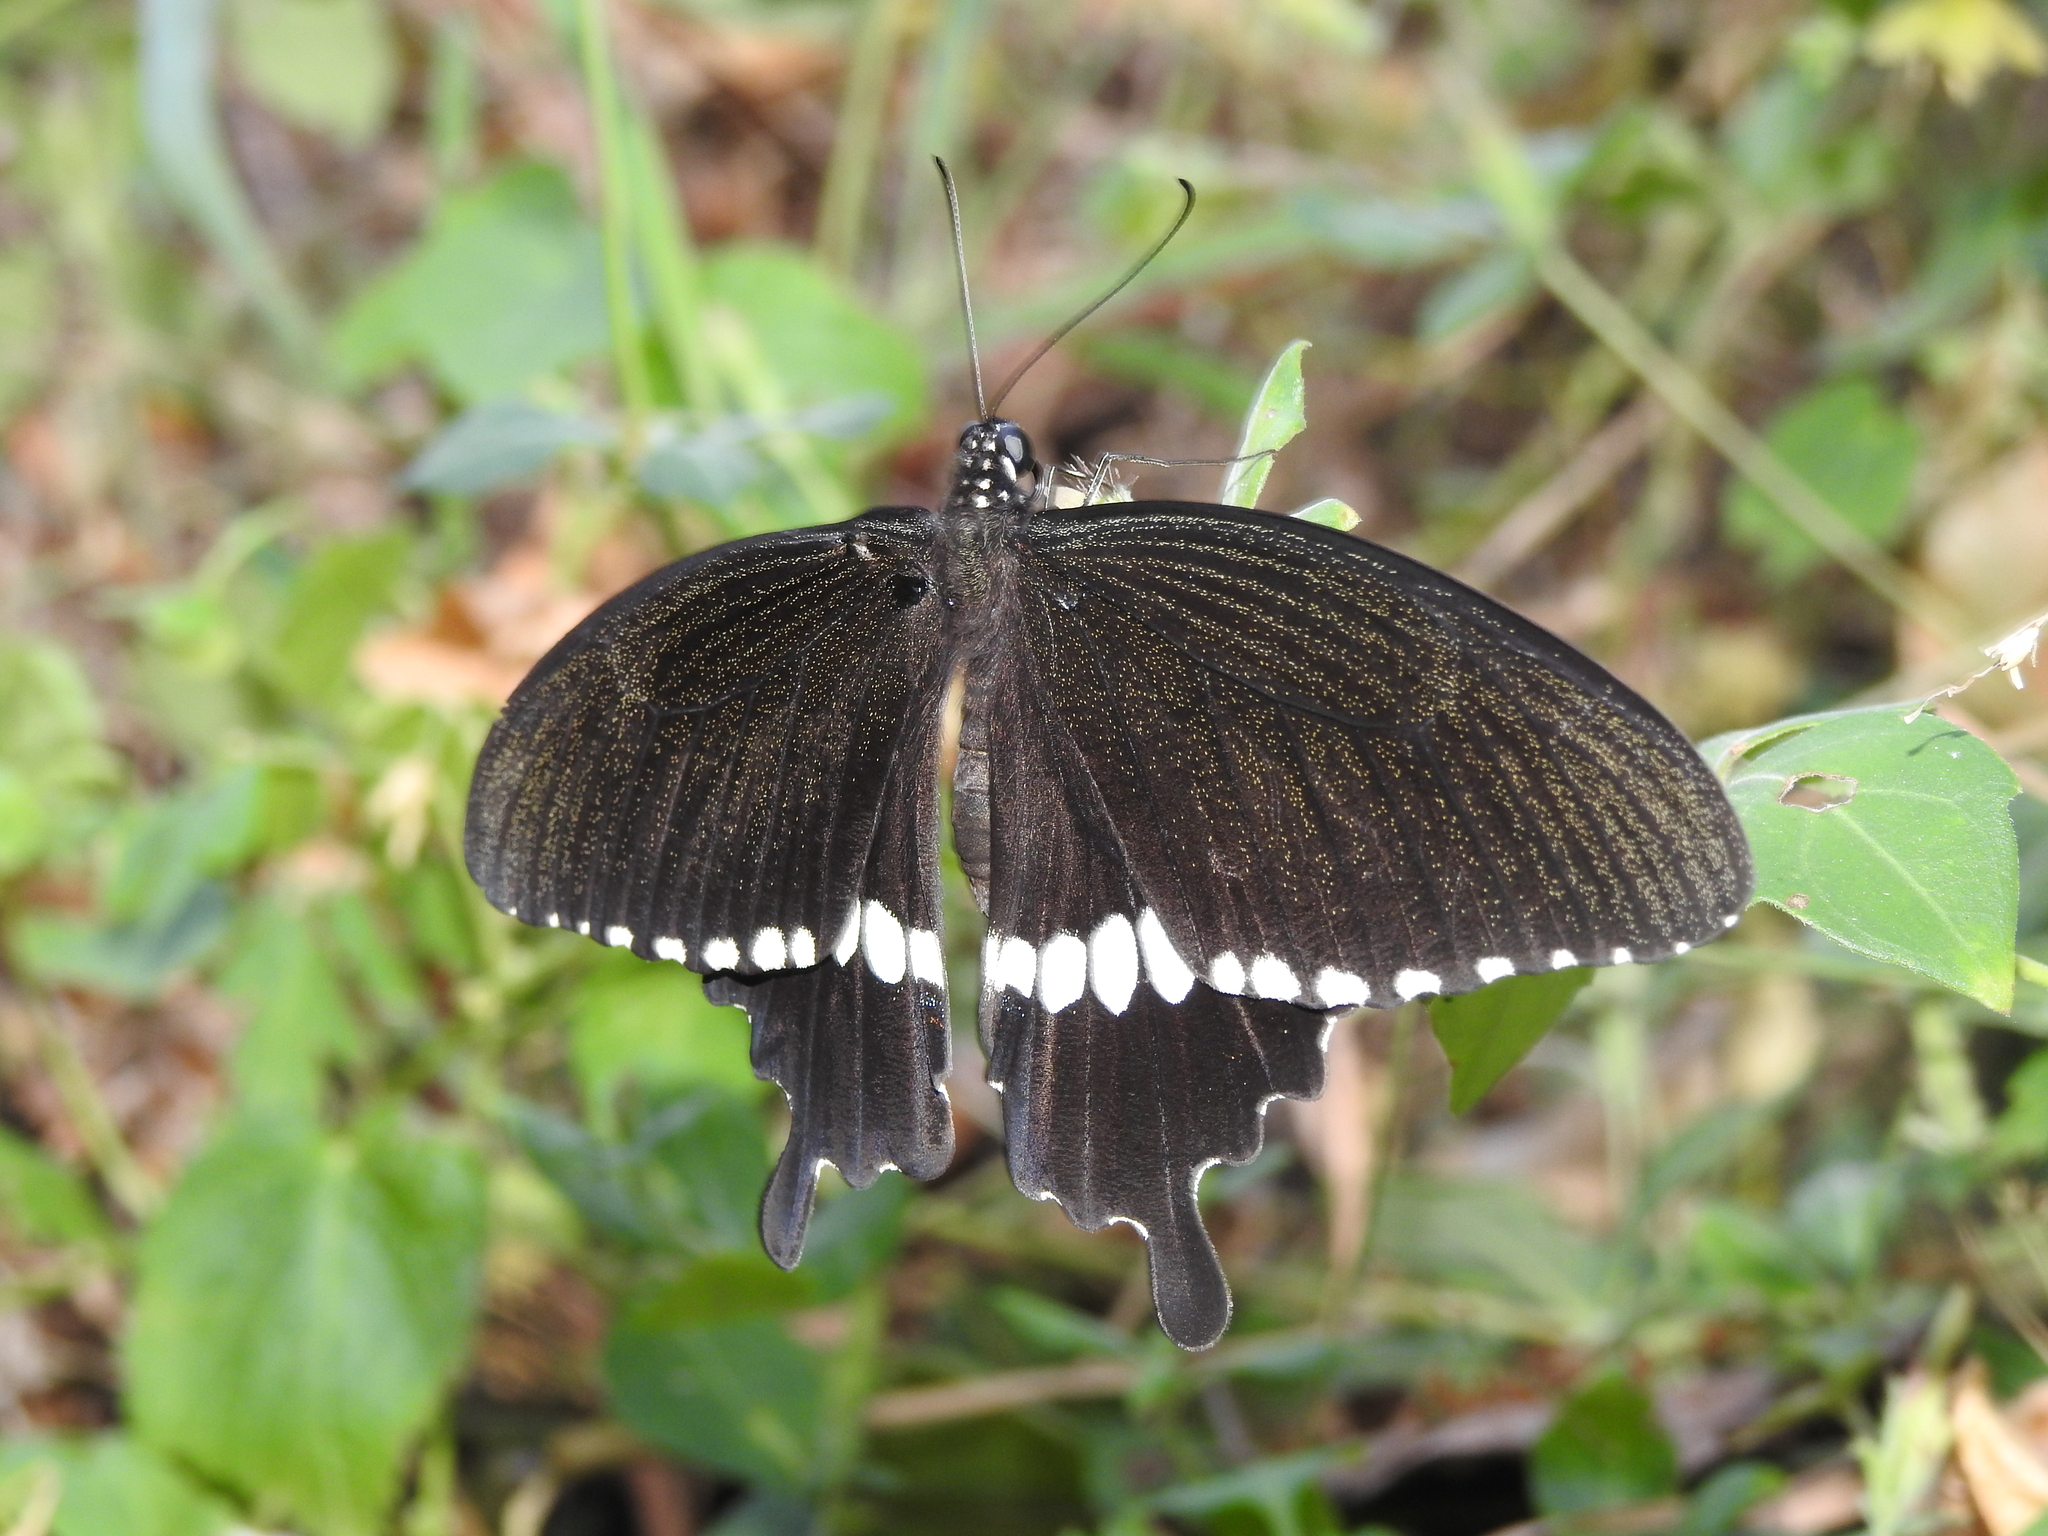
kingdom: Animalia
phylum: Arthropoda
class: Insecta
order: Lepidoptera
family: Papilionidae
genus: Papilio
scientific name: Papilio polytes
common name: Common mormon
